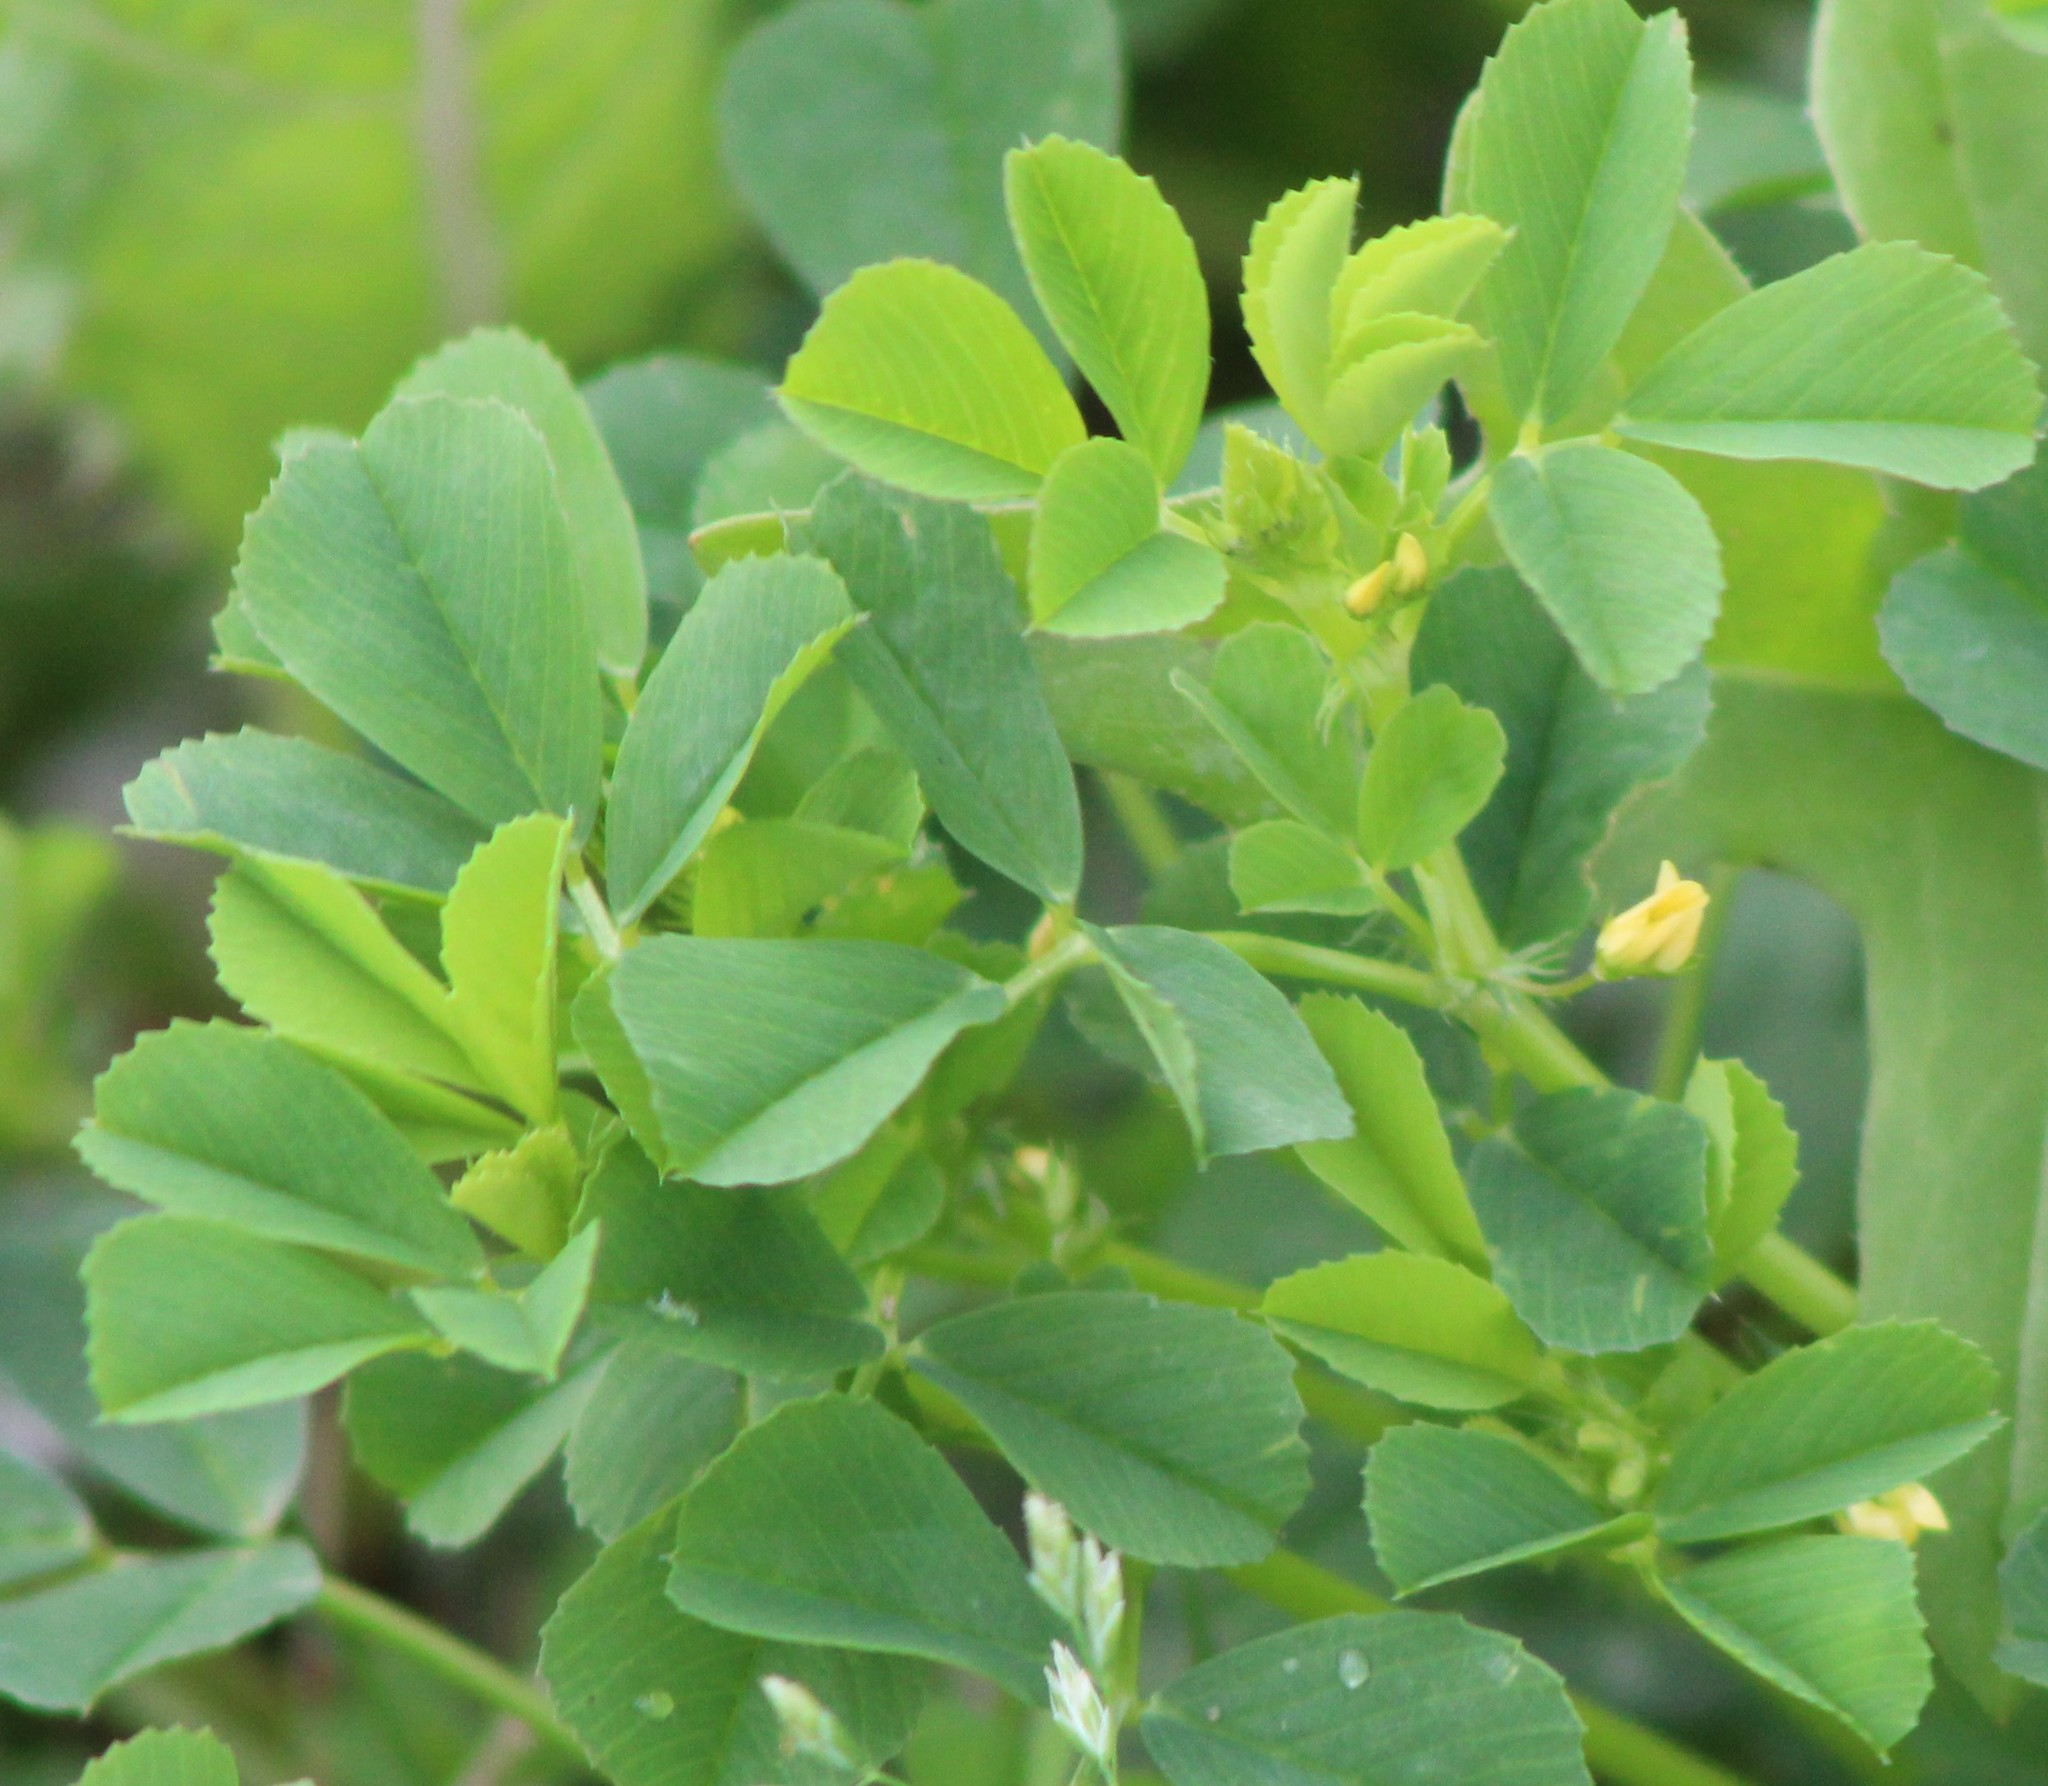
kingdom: Plantae
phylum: Tracheophyta
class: Magnoliopsida
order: Fabales
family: Fabaceae
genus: Medicago
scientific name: Medicago polymorpha
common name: Burclover
